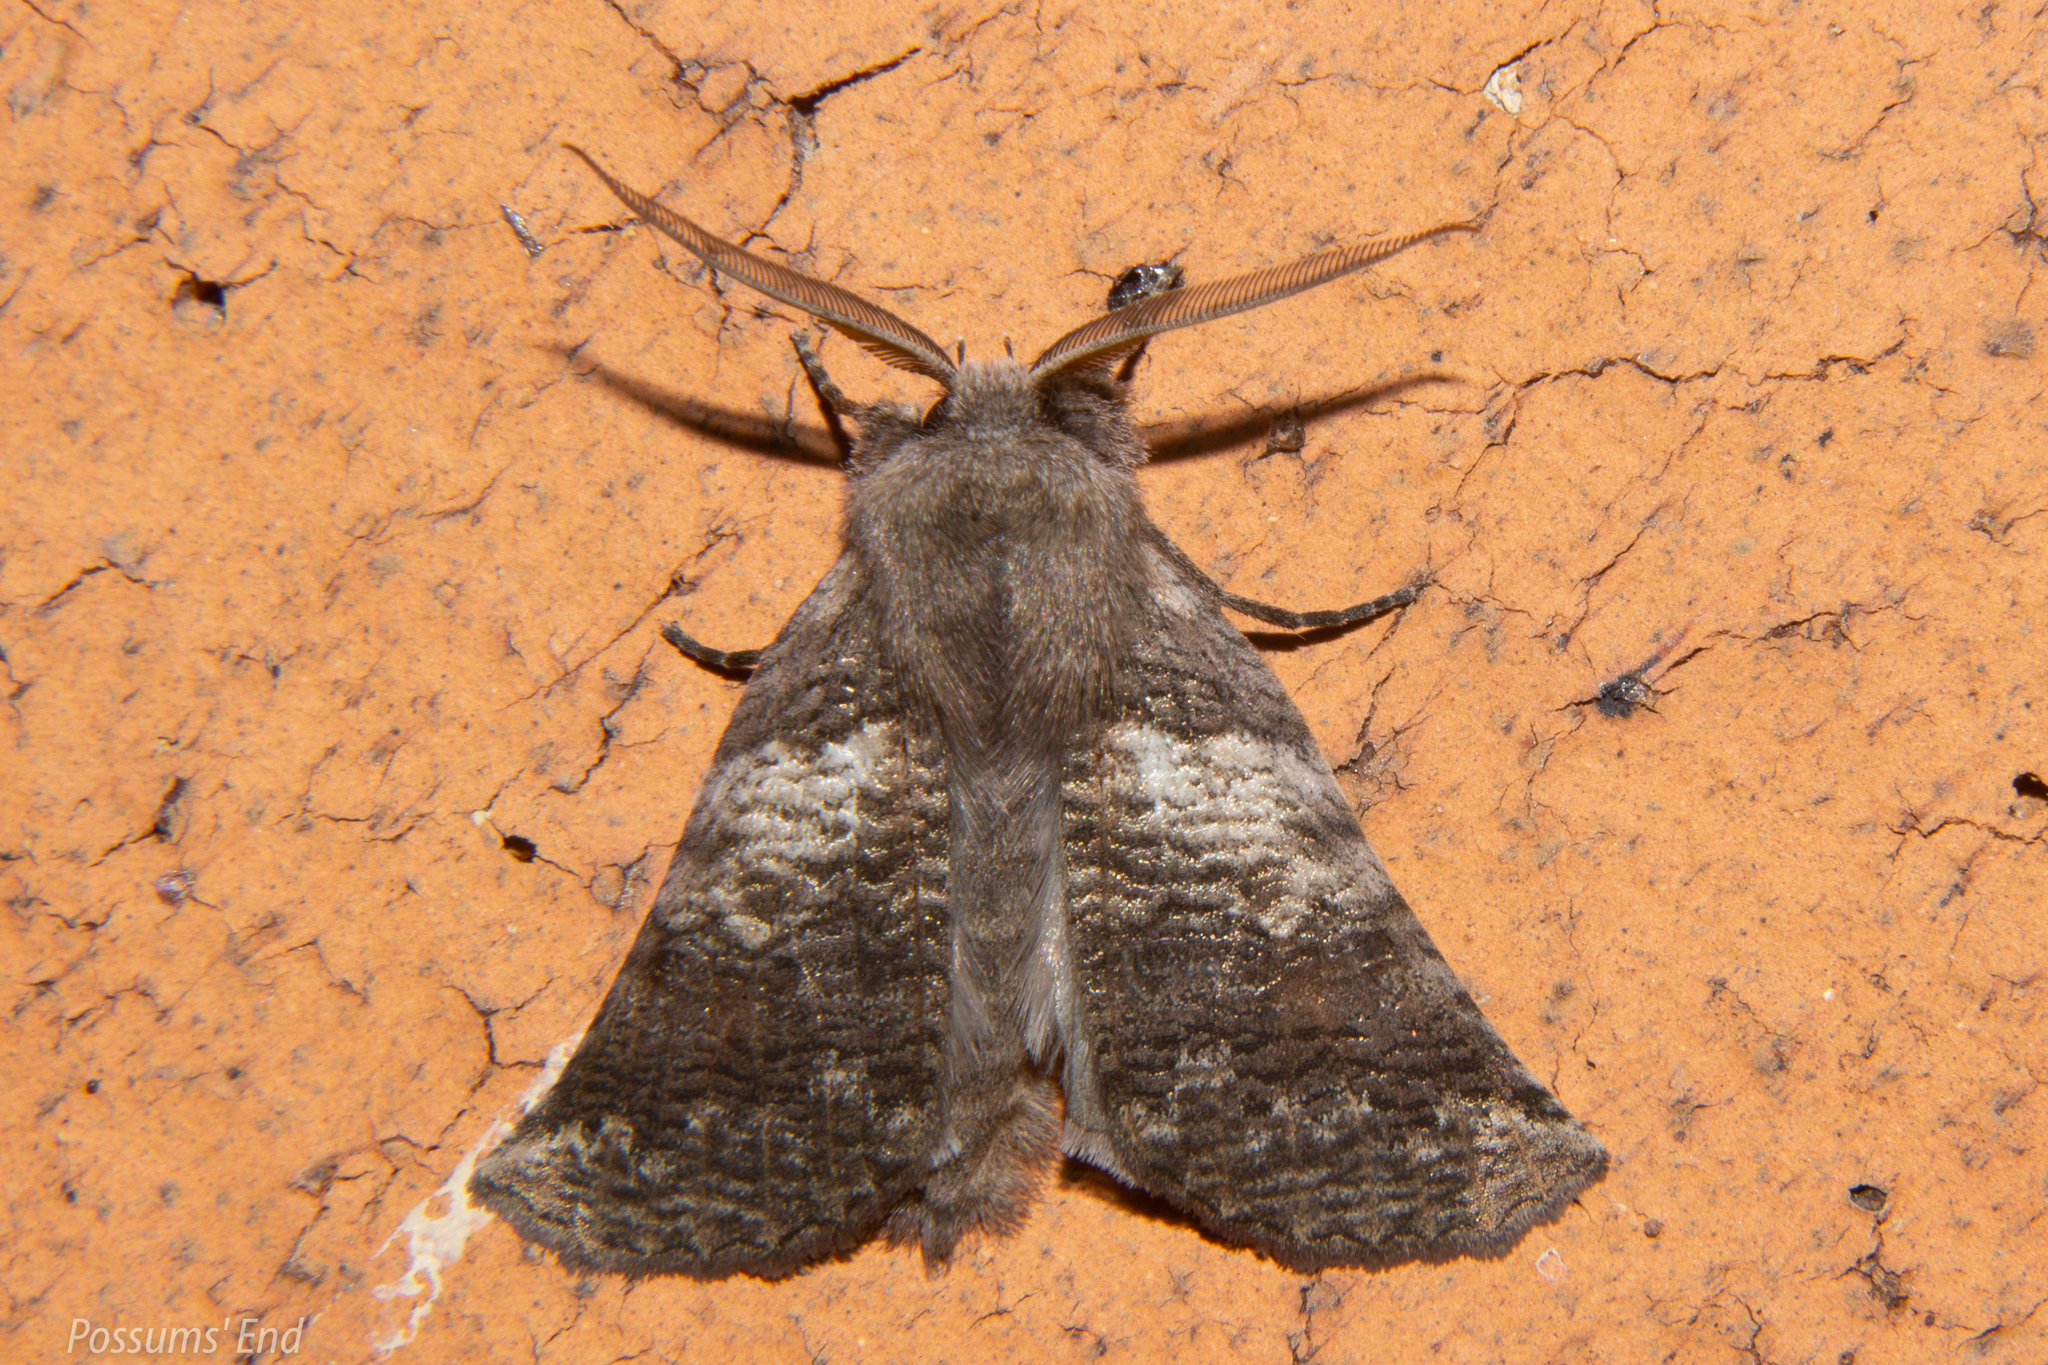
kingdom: Animalia
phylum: Arthropoda
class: Insecta
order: Lepidoptera
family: Geometridae
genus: Declana
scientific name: Declana
